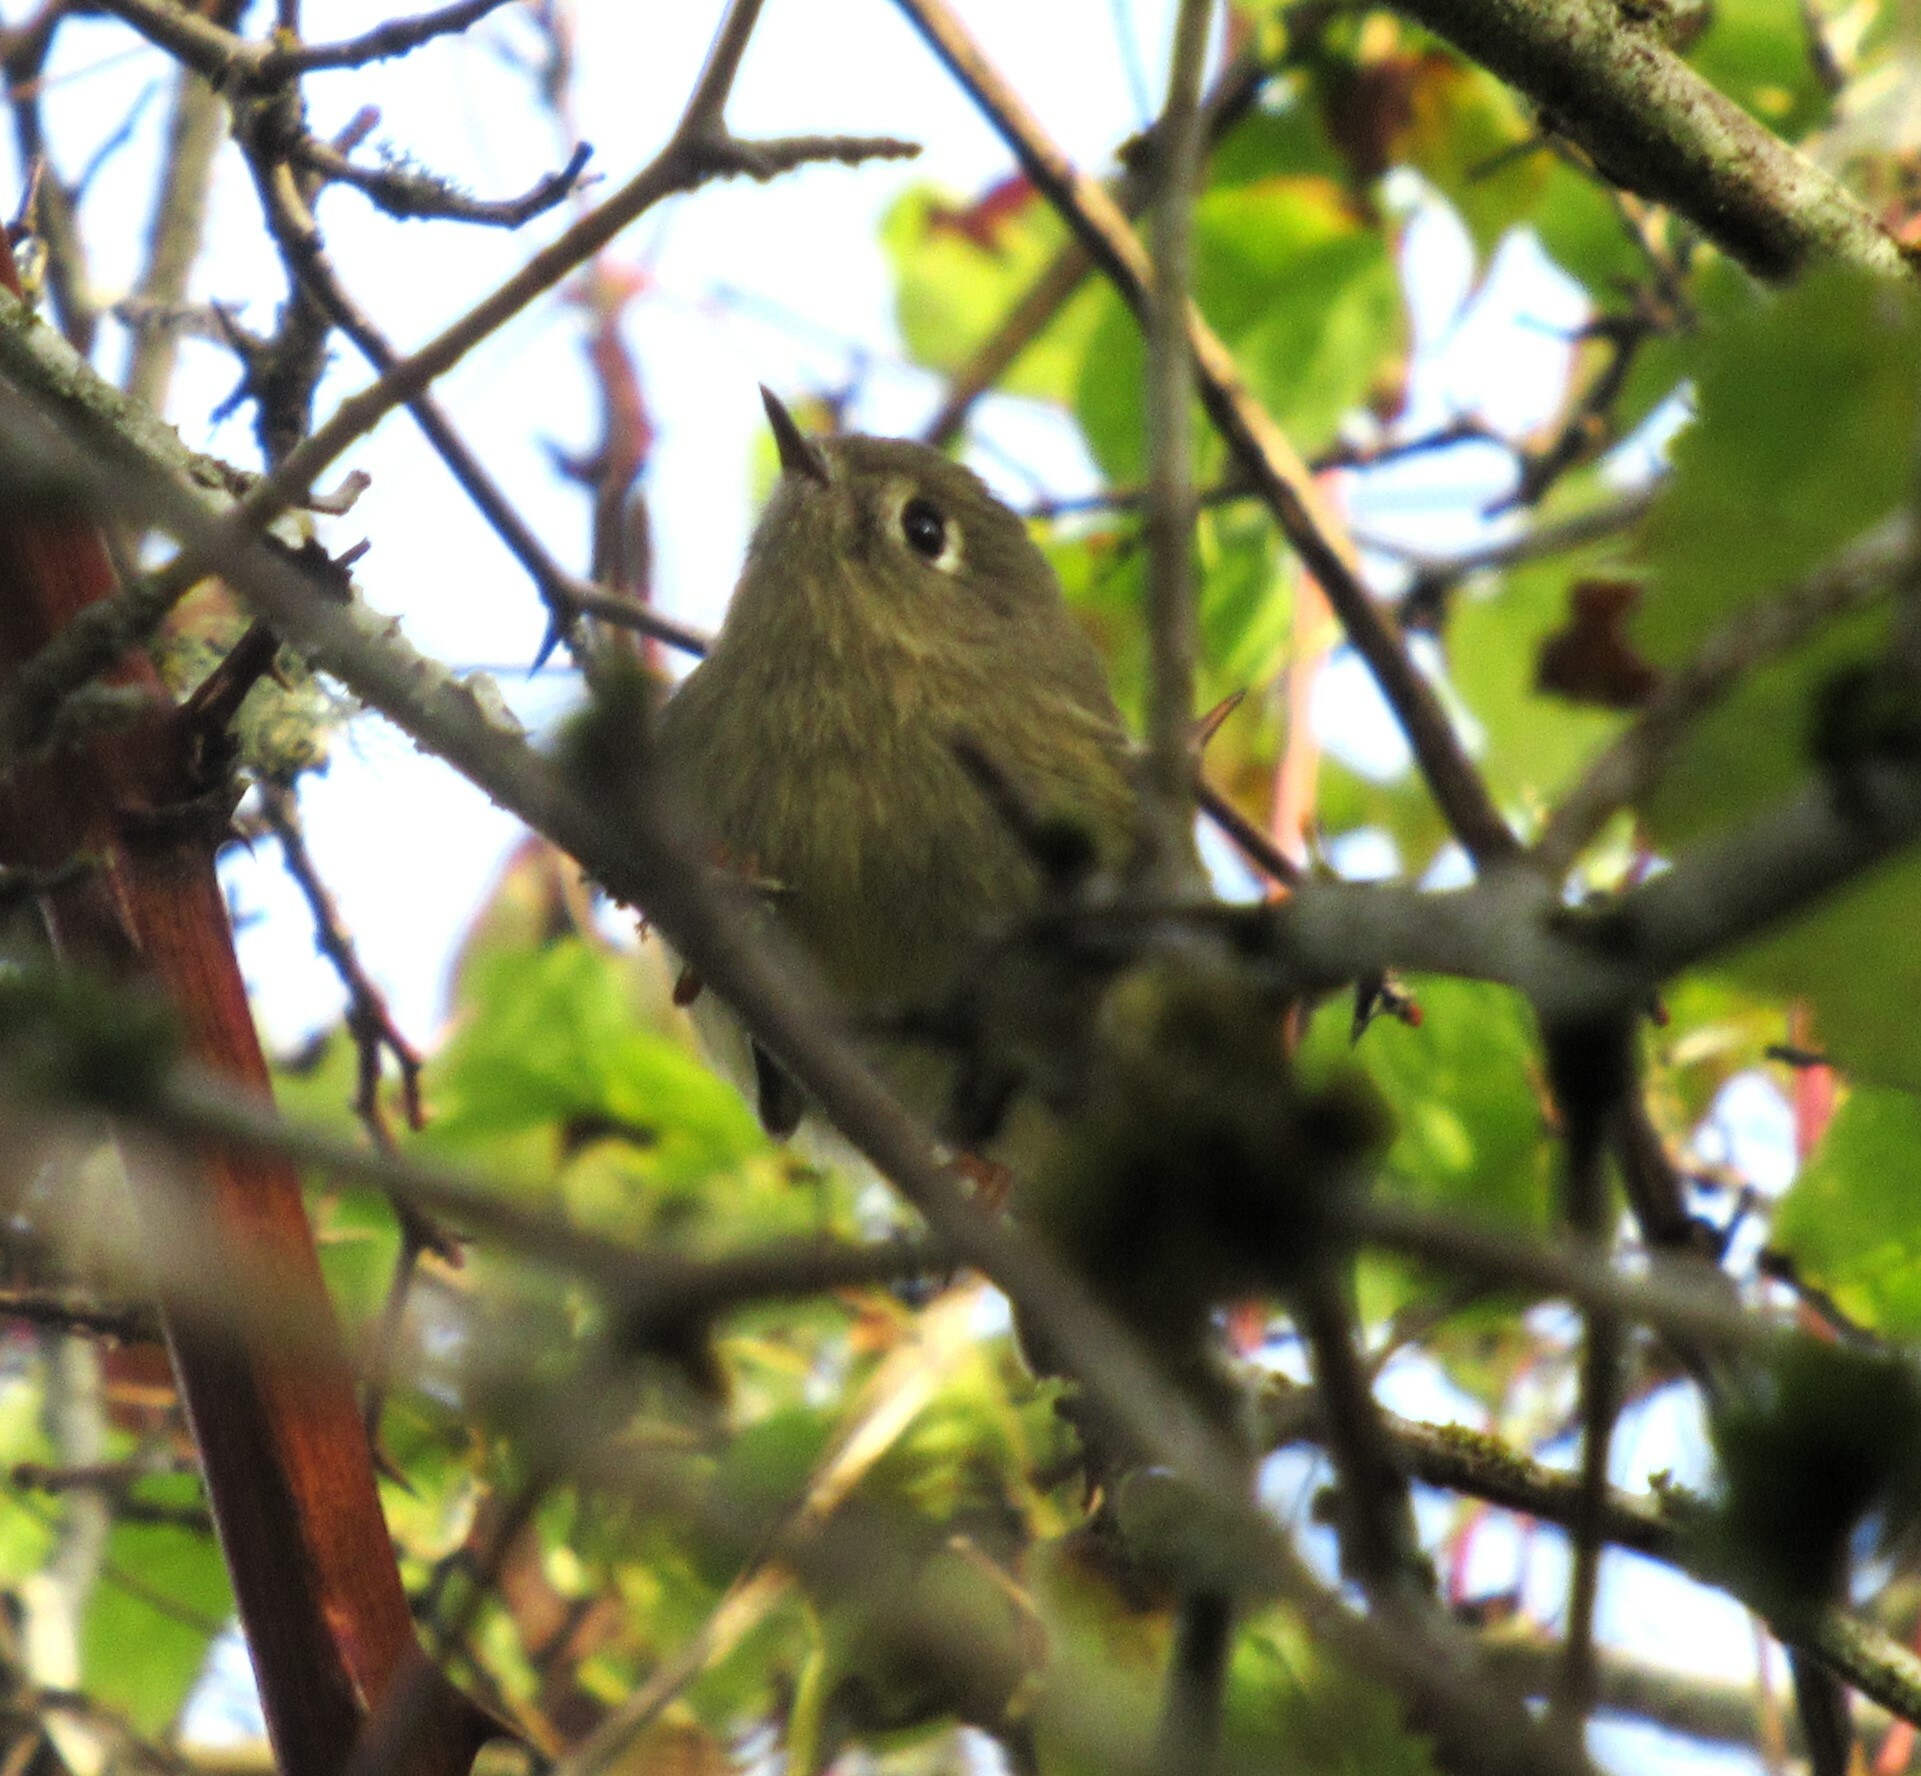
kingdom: Animalia
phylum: Chordata
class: Aves
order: Passeriformes
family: Regulidae
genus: Regulus
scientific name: Regulus calendula
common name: Ruby-crowned kinglet
